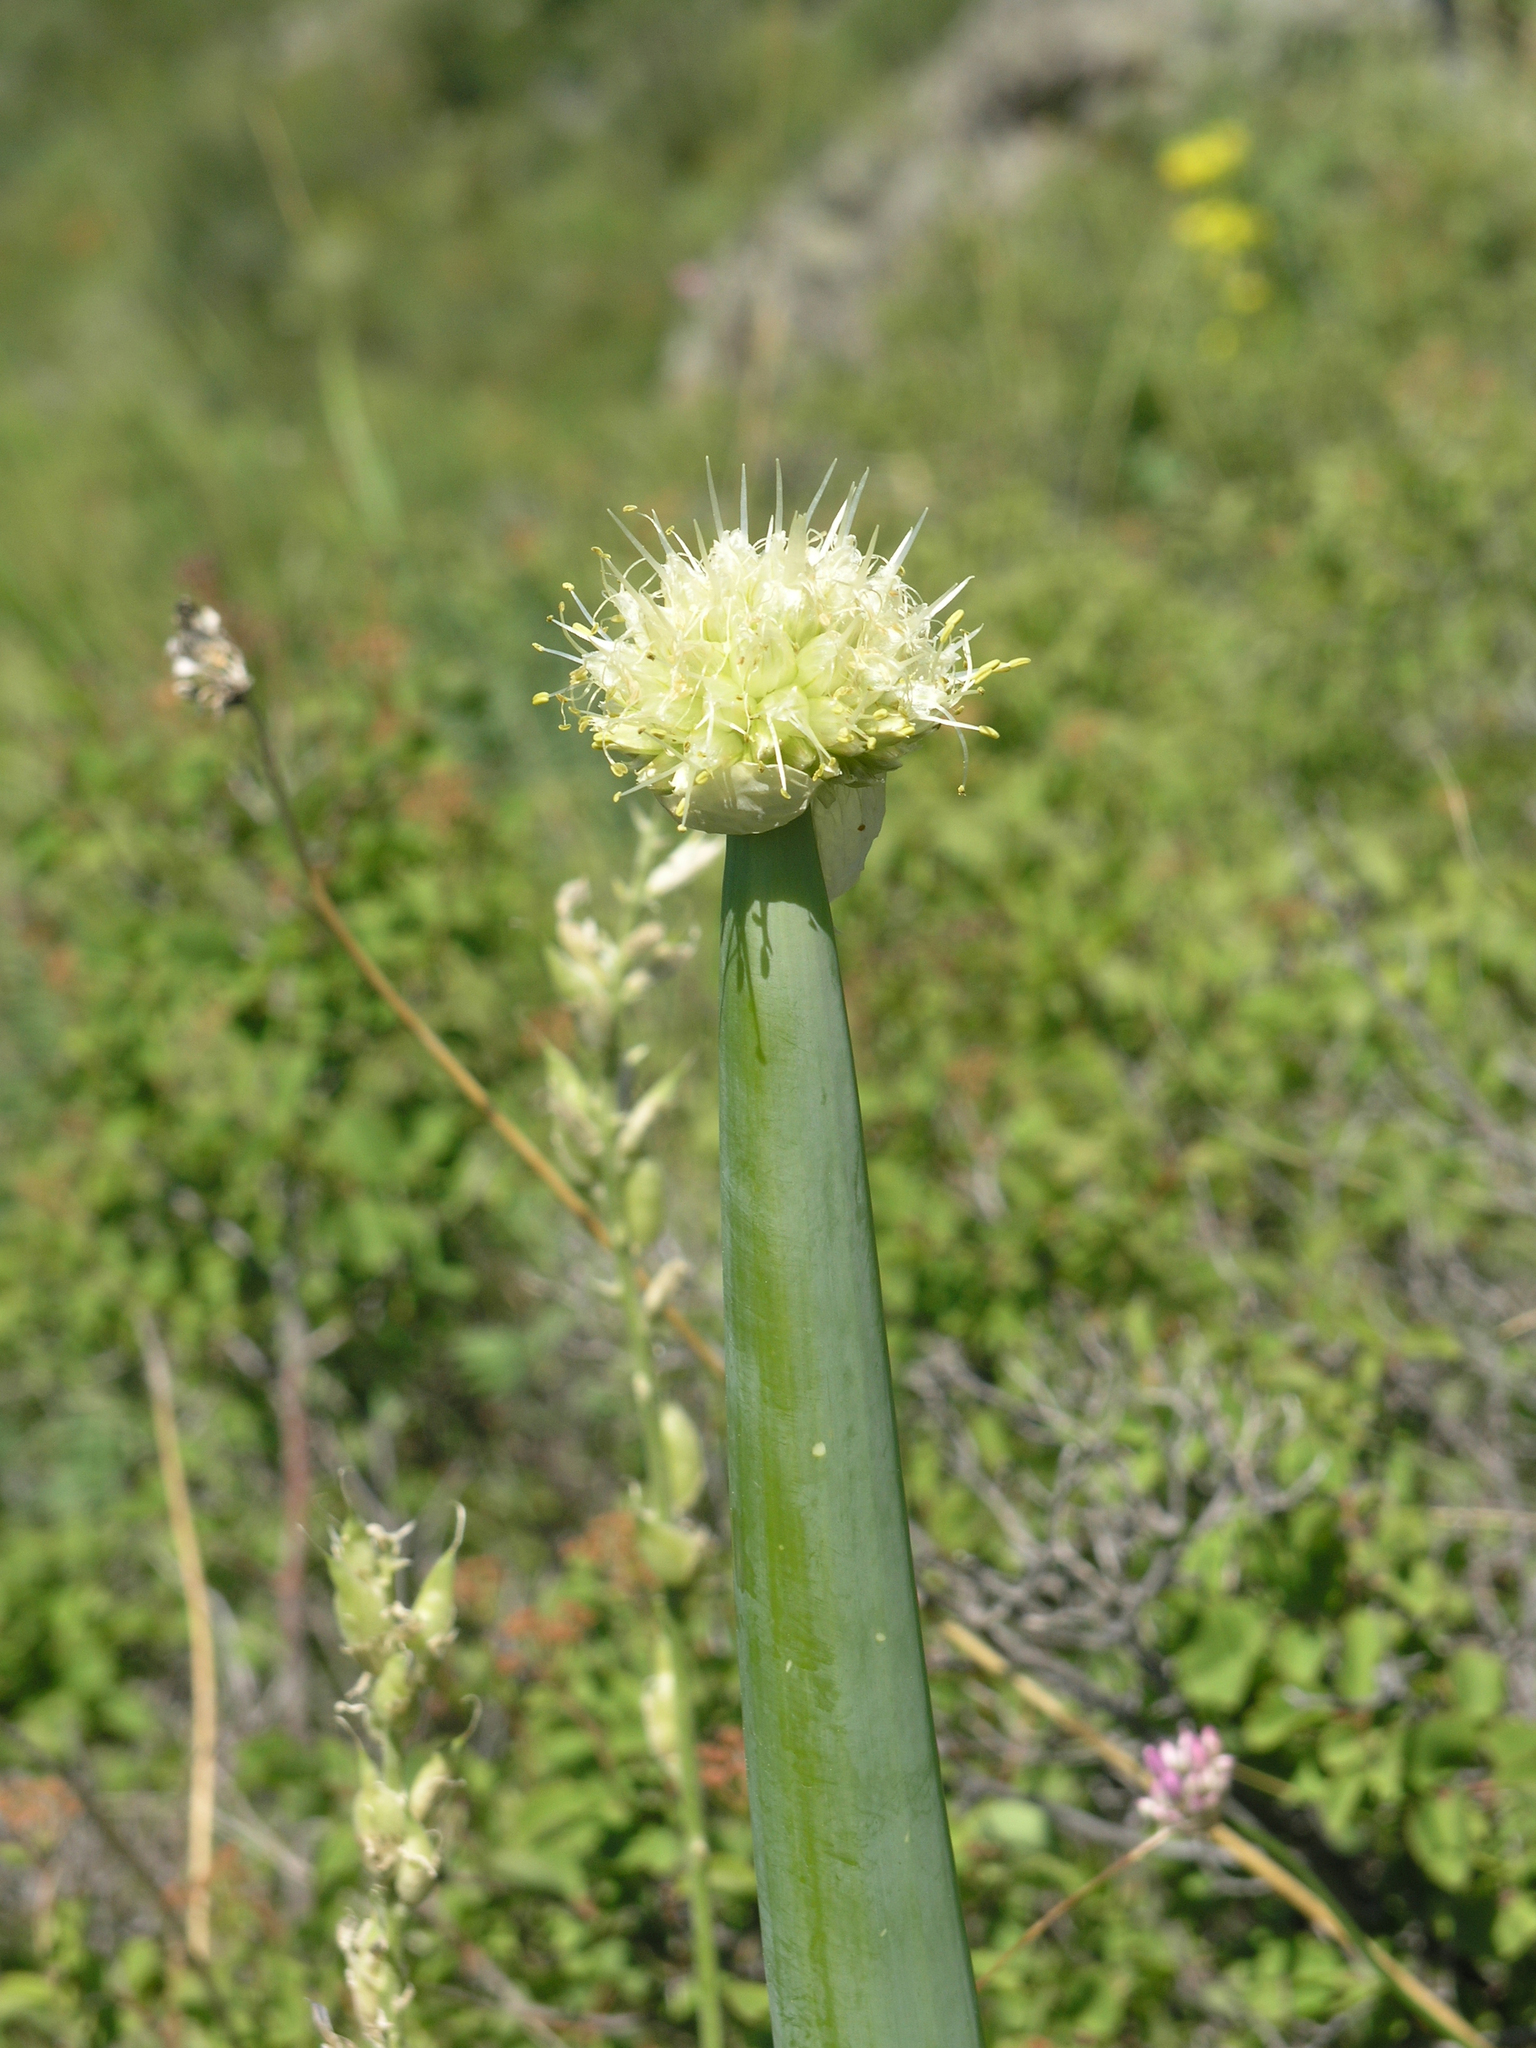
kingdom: Plantae
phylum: Tracheophyta
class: Liliopsida
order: Asparagales
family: Amaryllidaceae
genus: Allium
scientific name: Allium altaicum
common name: Altai onion
